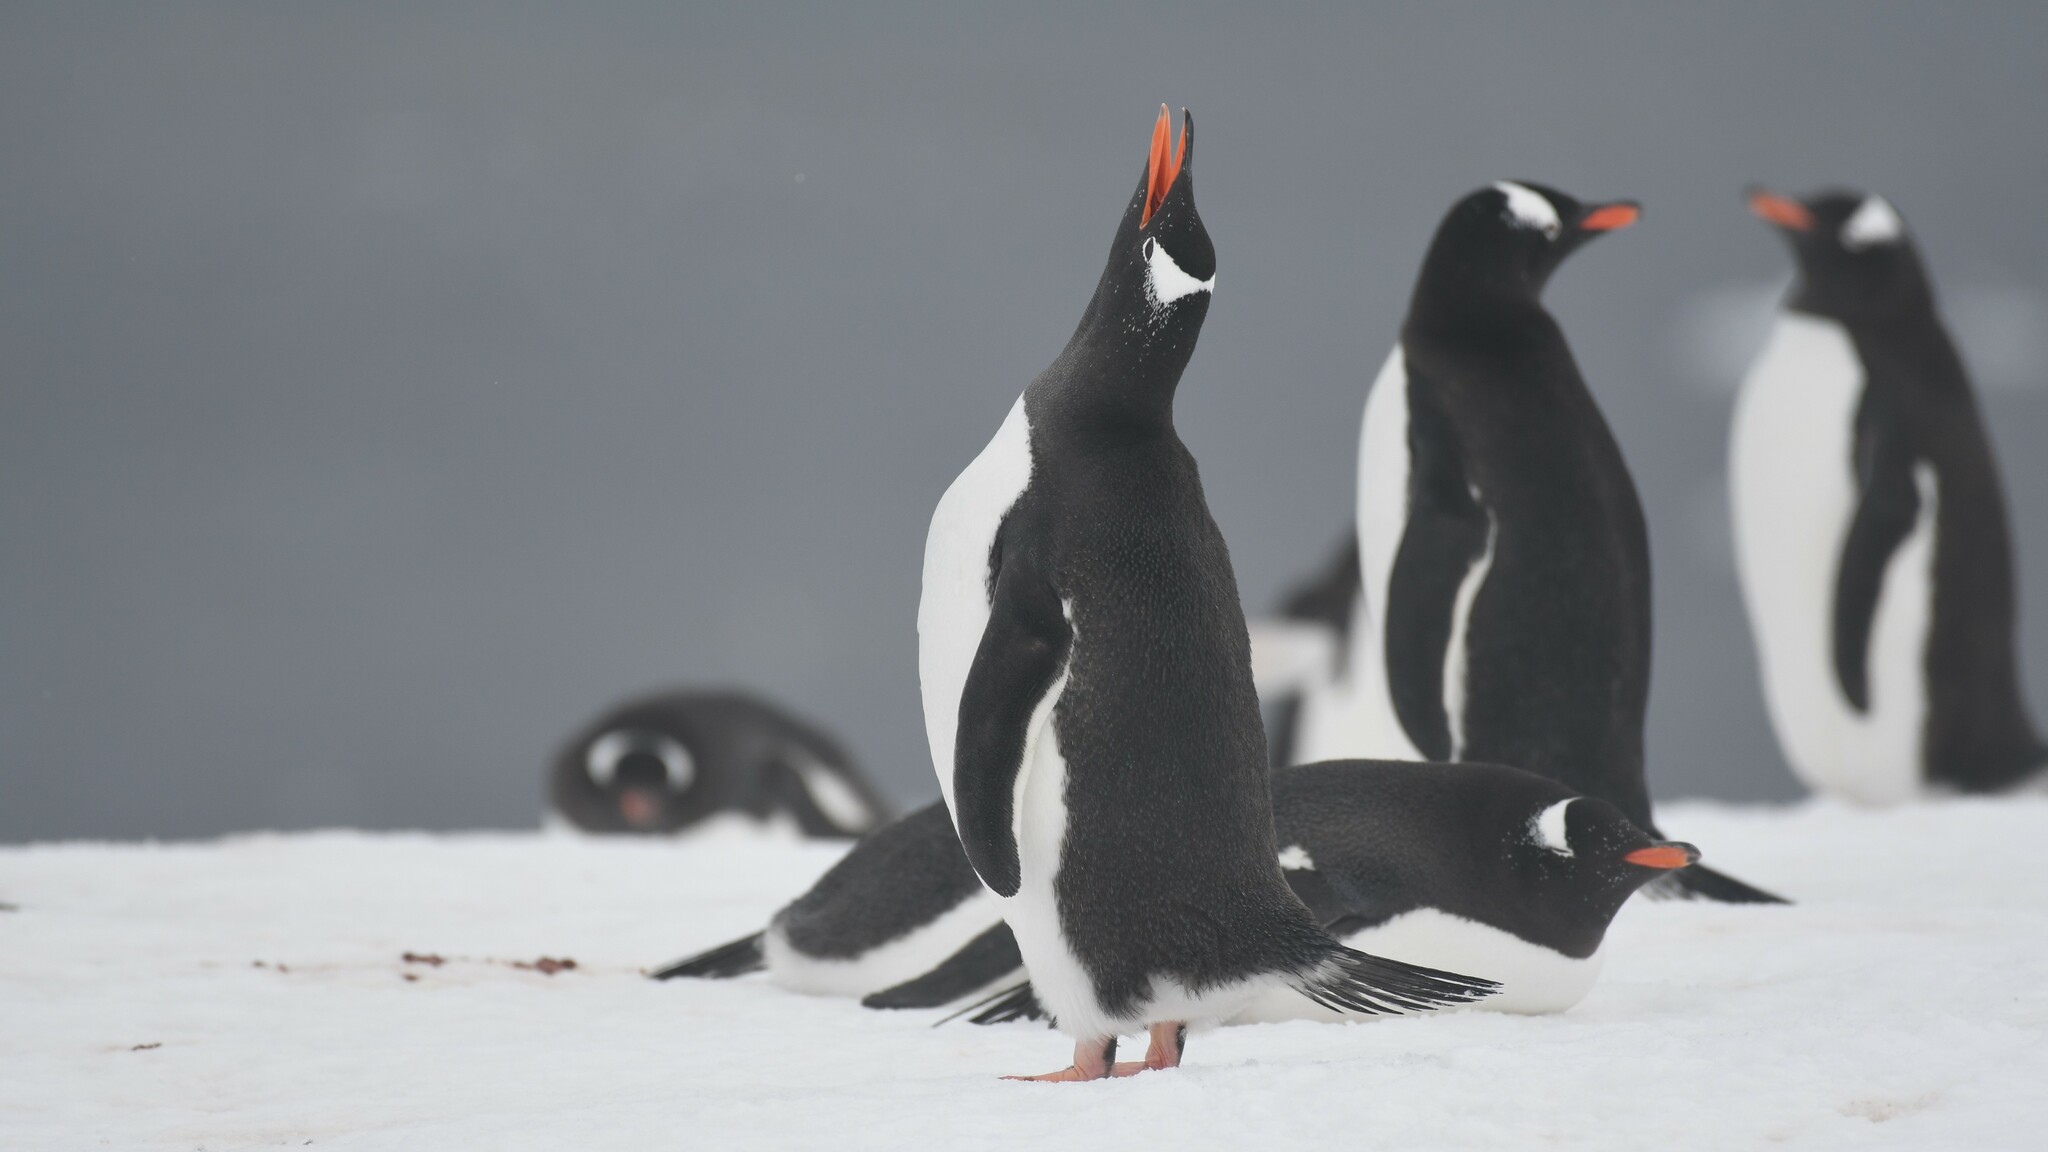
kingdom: Animalia
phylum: Chordata
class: Aves
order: Sphenisciformes
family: Spheniscidae
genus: Pygoscelis
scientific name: Pygoscelis papua
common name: Gentoo penguin
